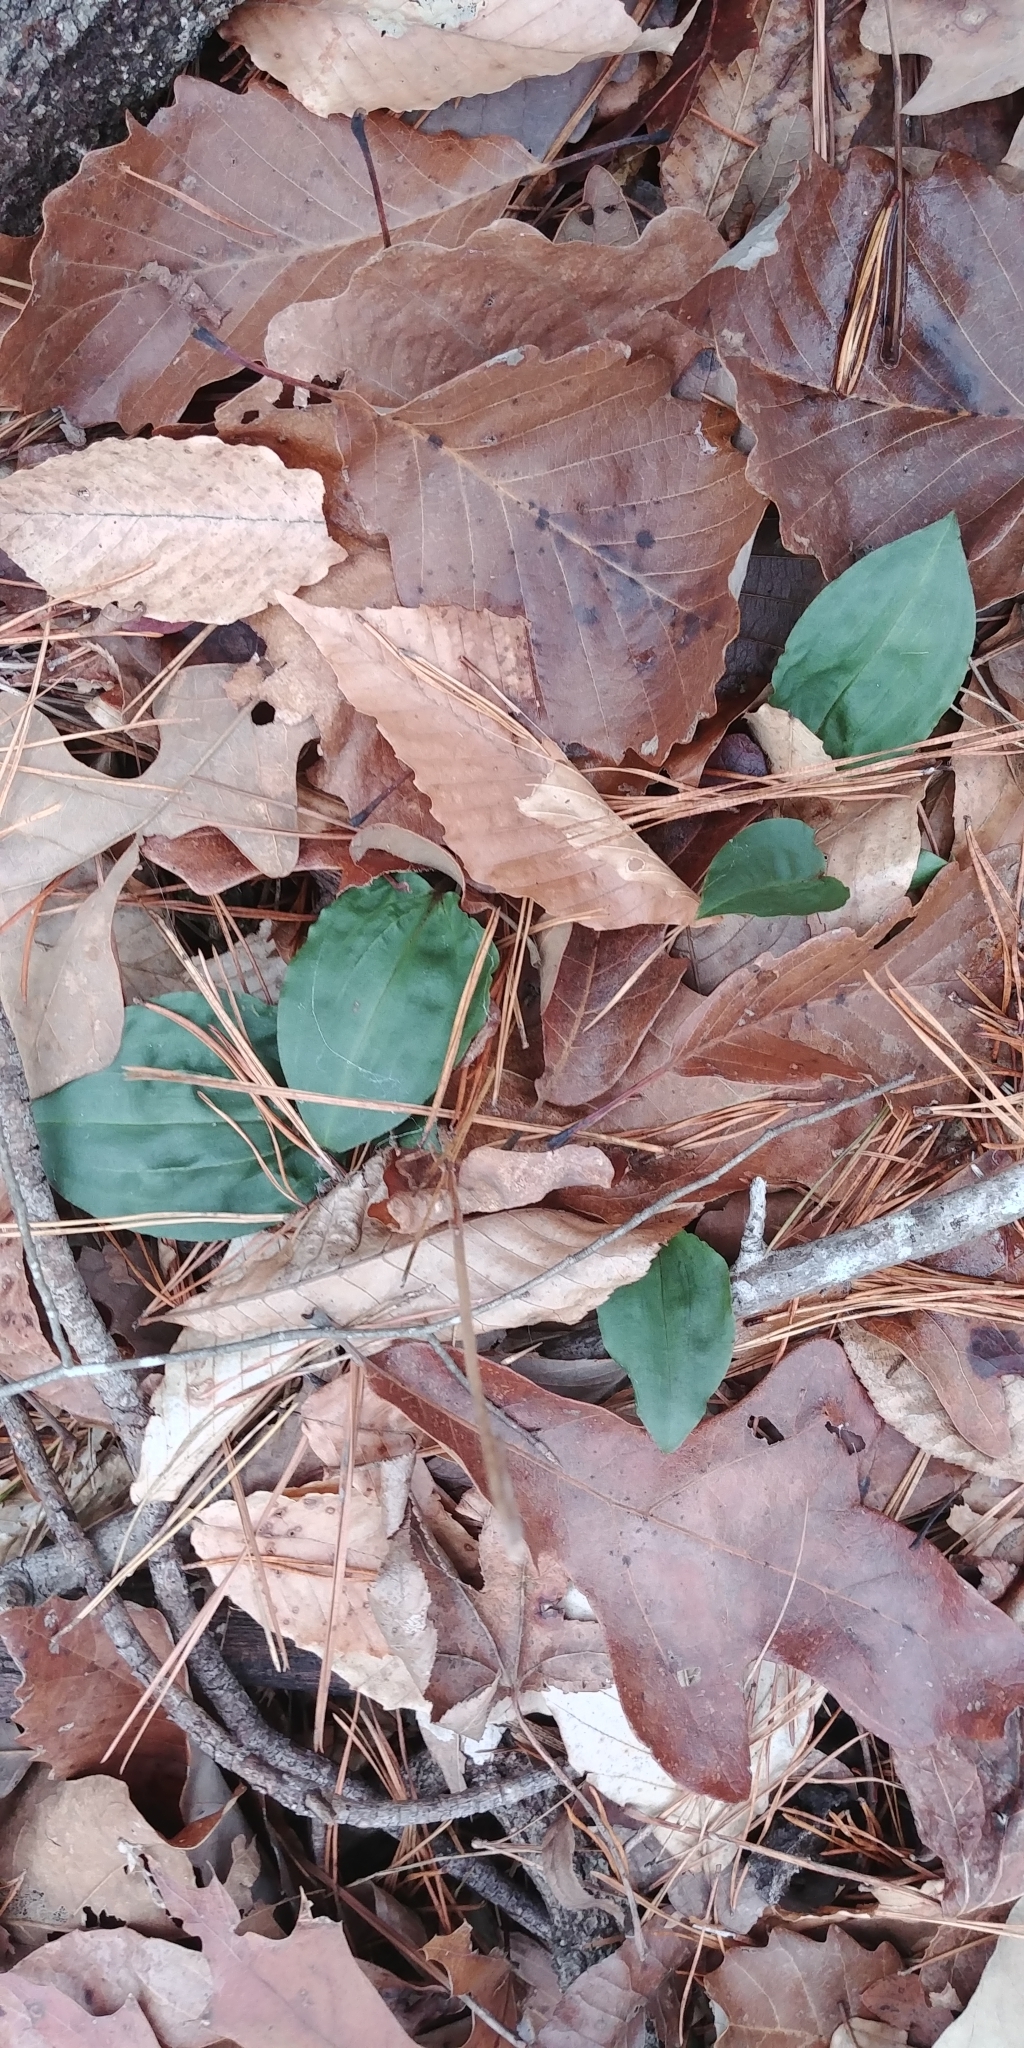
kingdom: Plantae
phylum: Tracheophyta
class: Liliopsida
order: Asparagales
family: Orchidaceae
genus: Tipularia
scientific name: Tipularia discolor
